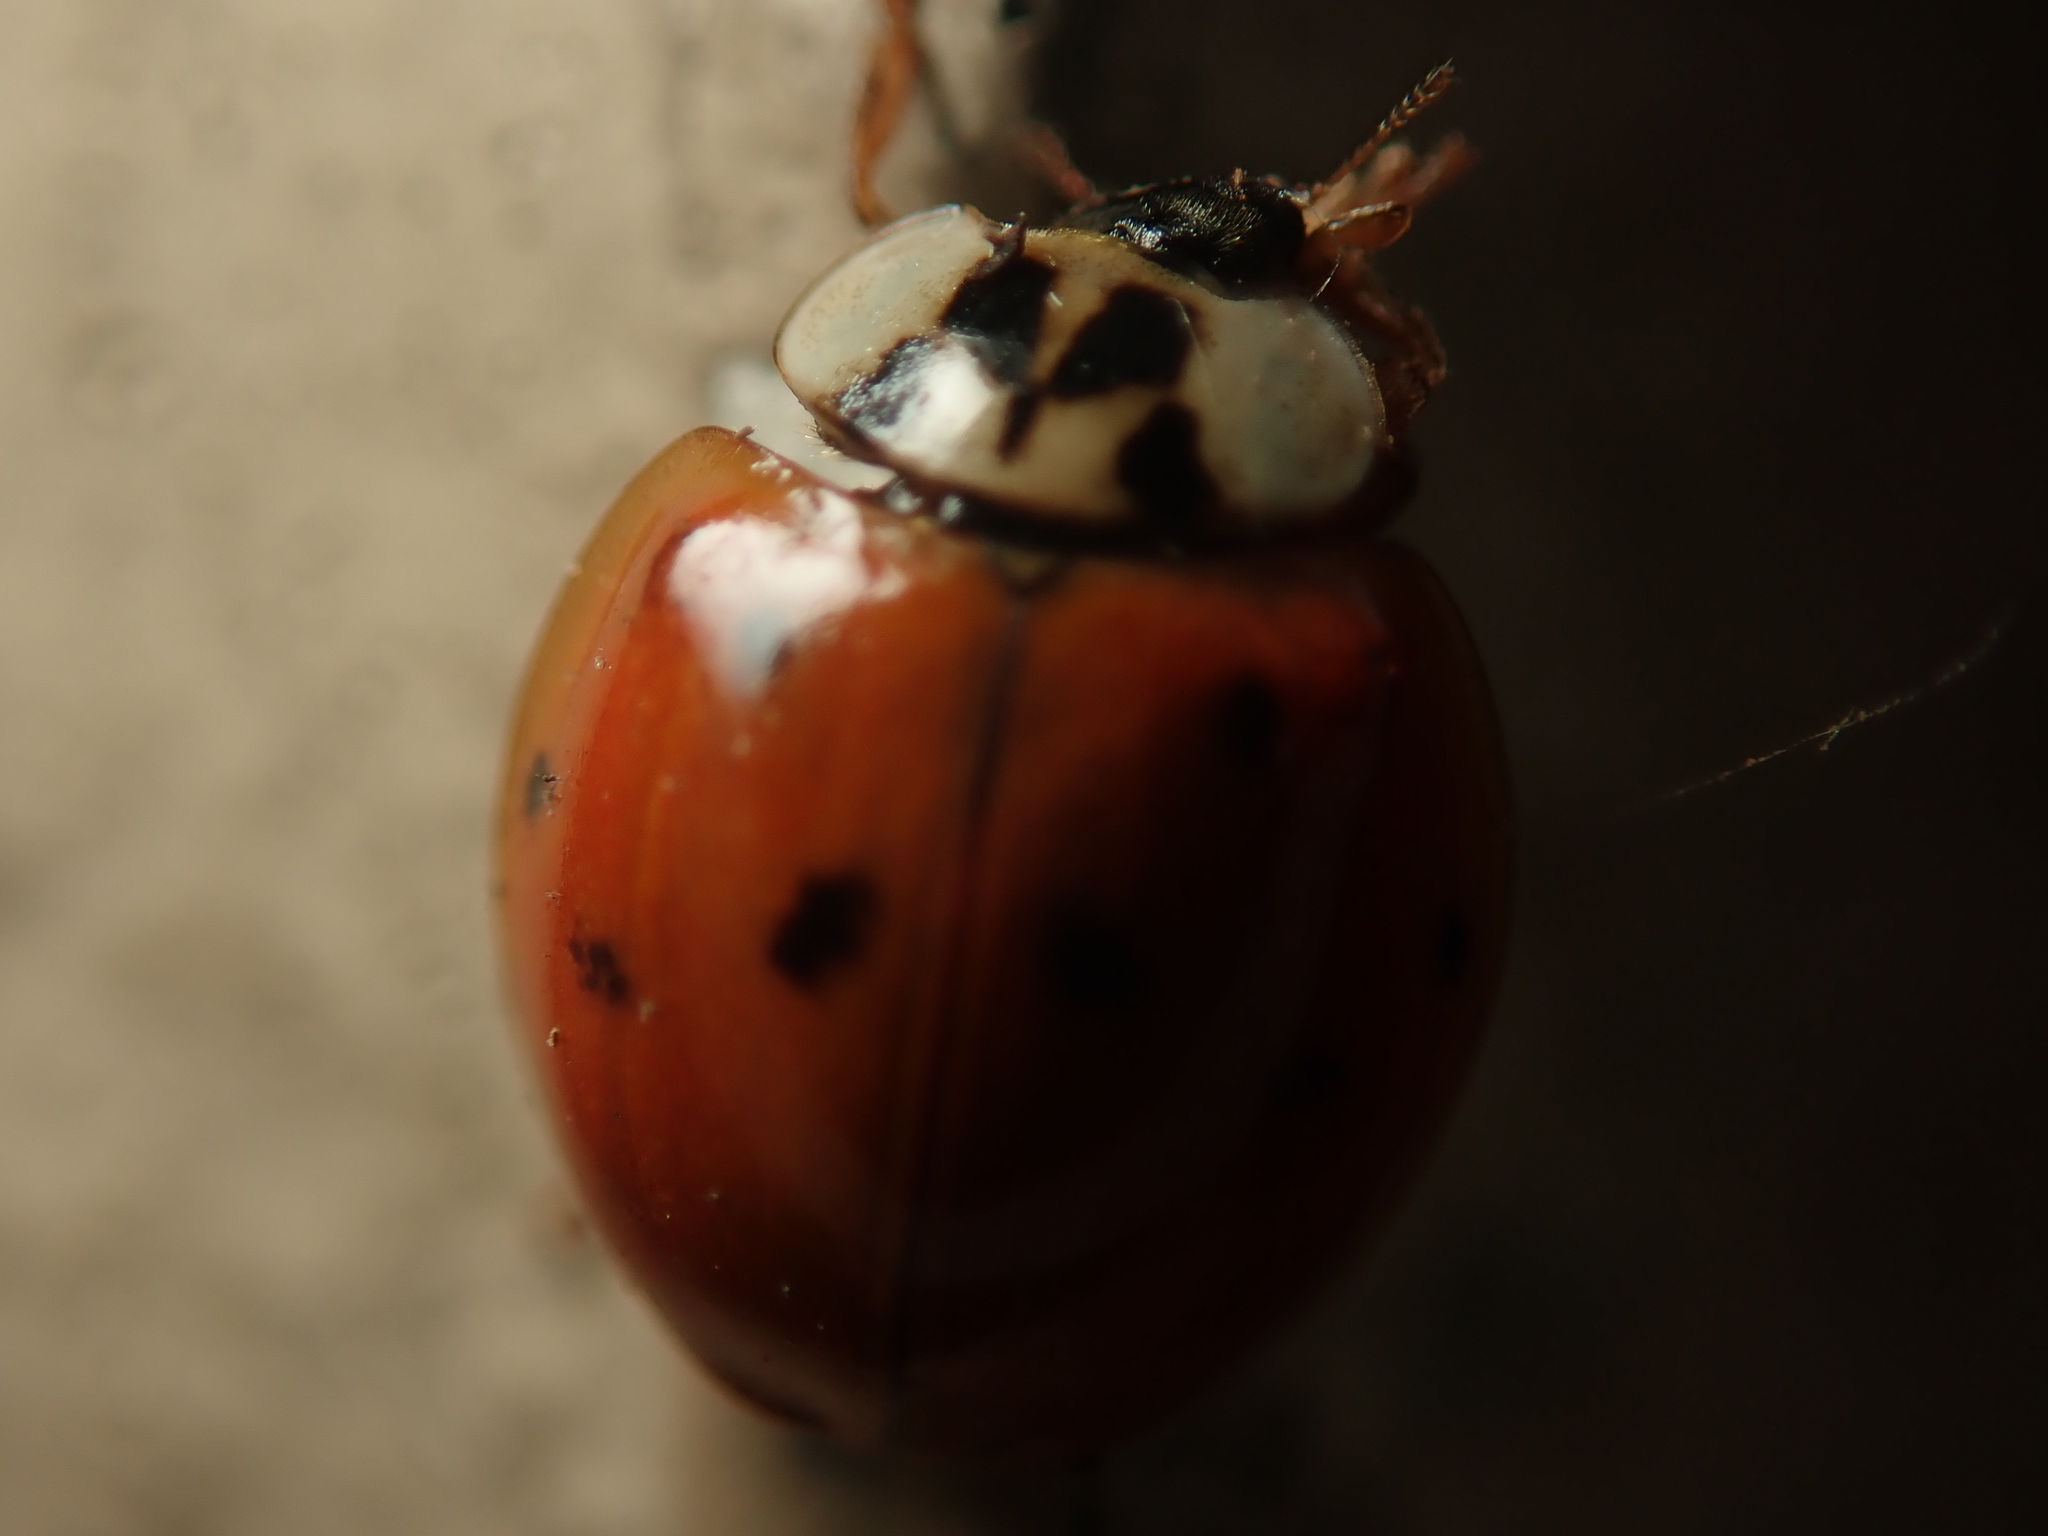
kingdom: Animalia
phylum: Arthropoda
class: Insecta
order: Coleoptera
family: Coccinellidae
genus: Harmonia
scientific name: Harmonia axyridis
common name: Harlequin ladybird
